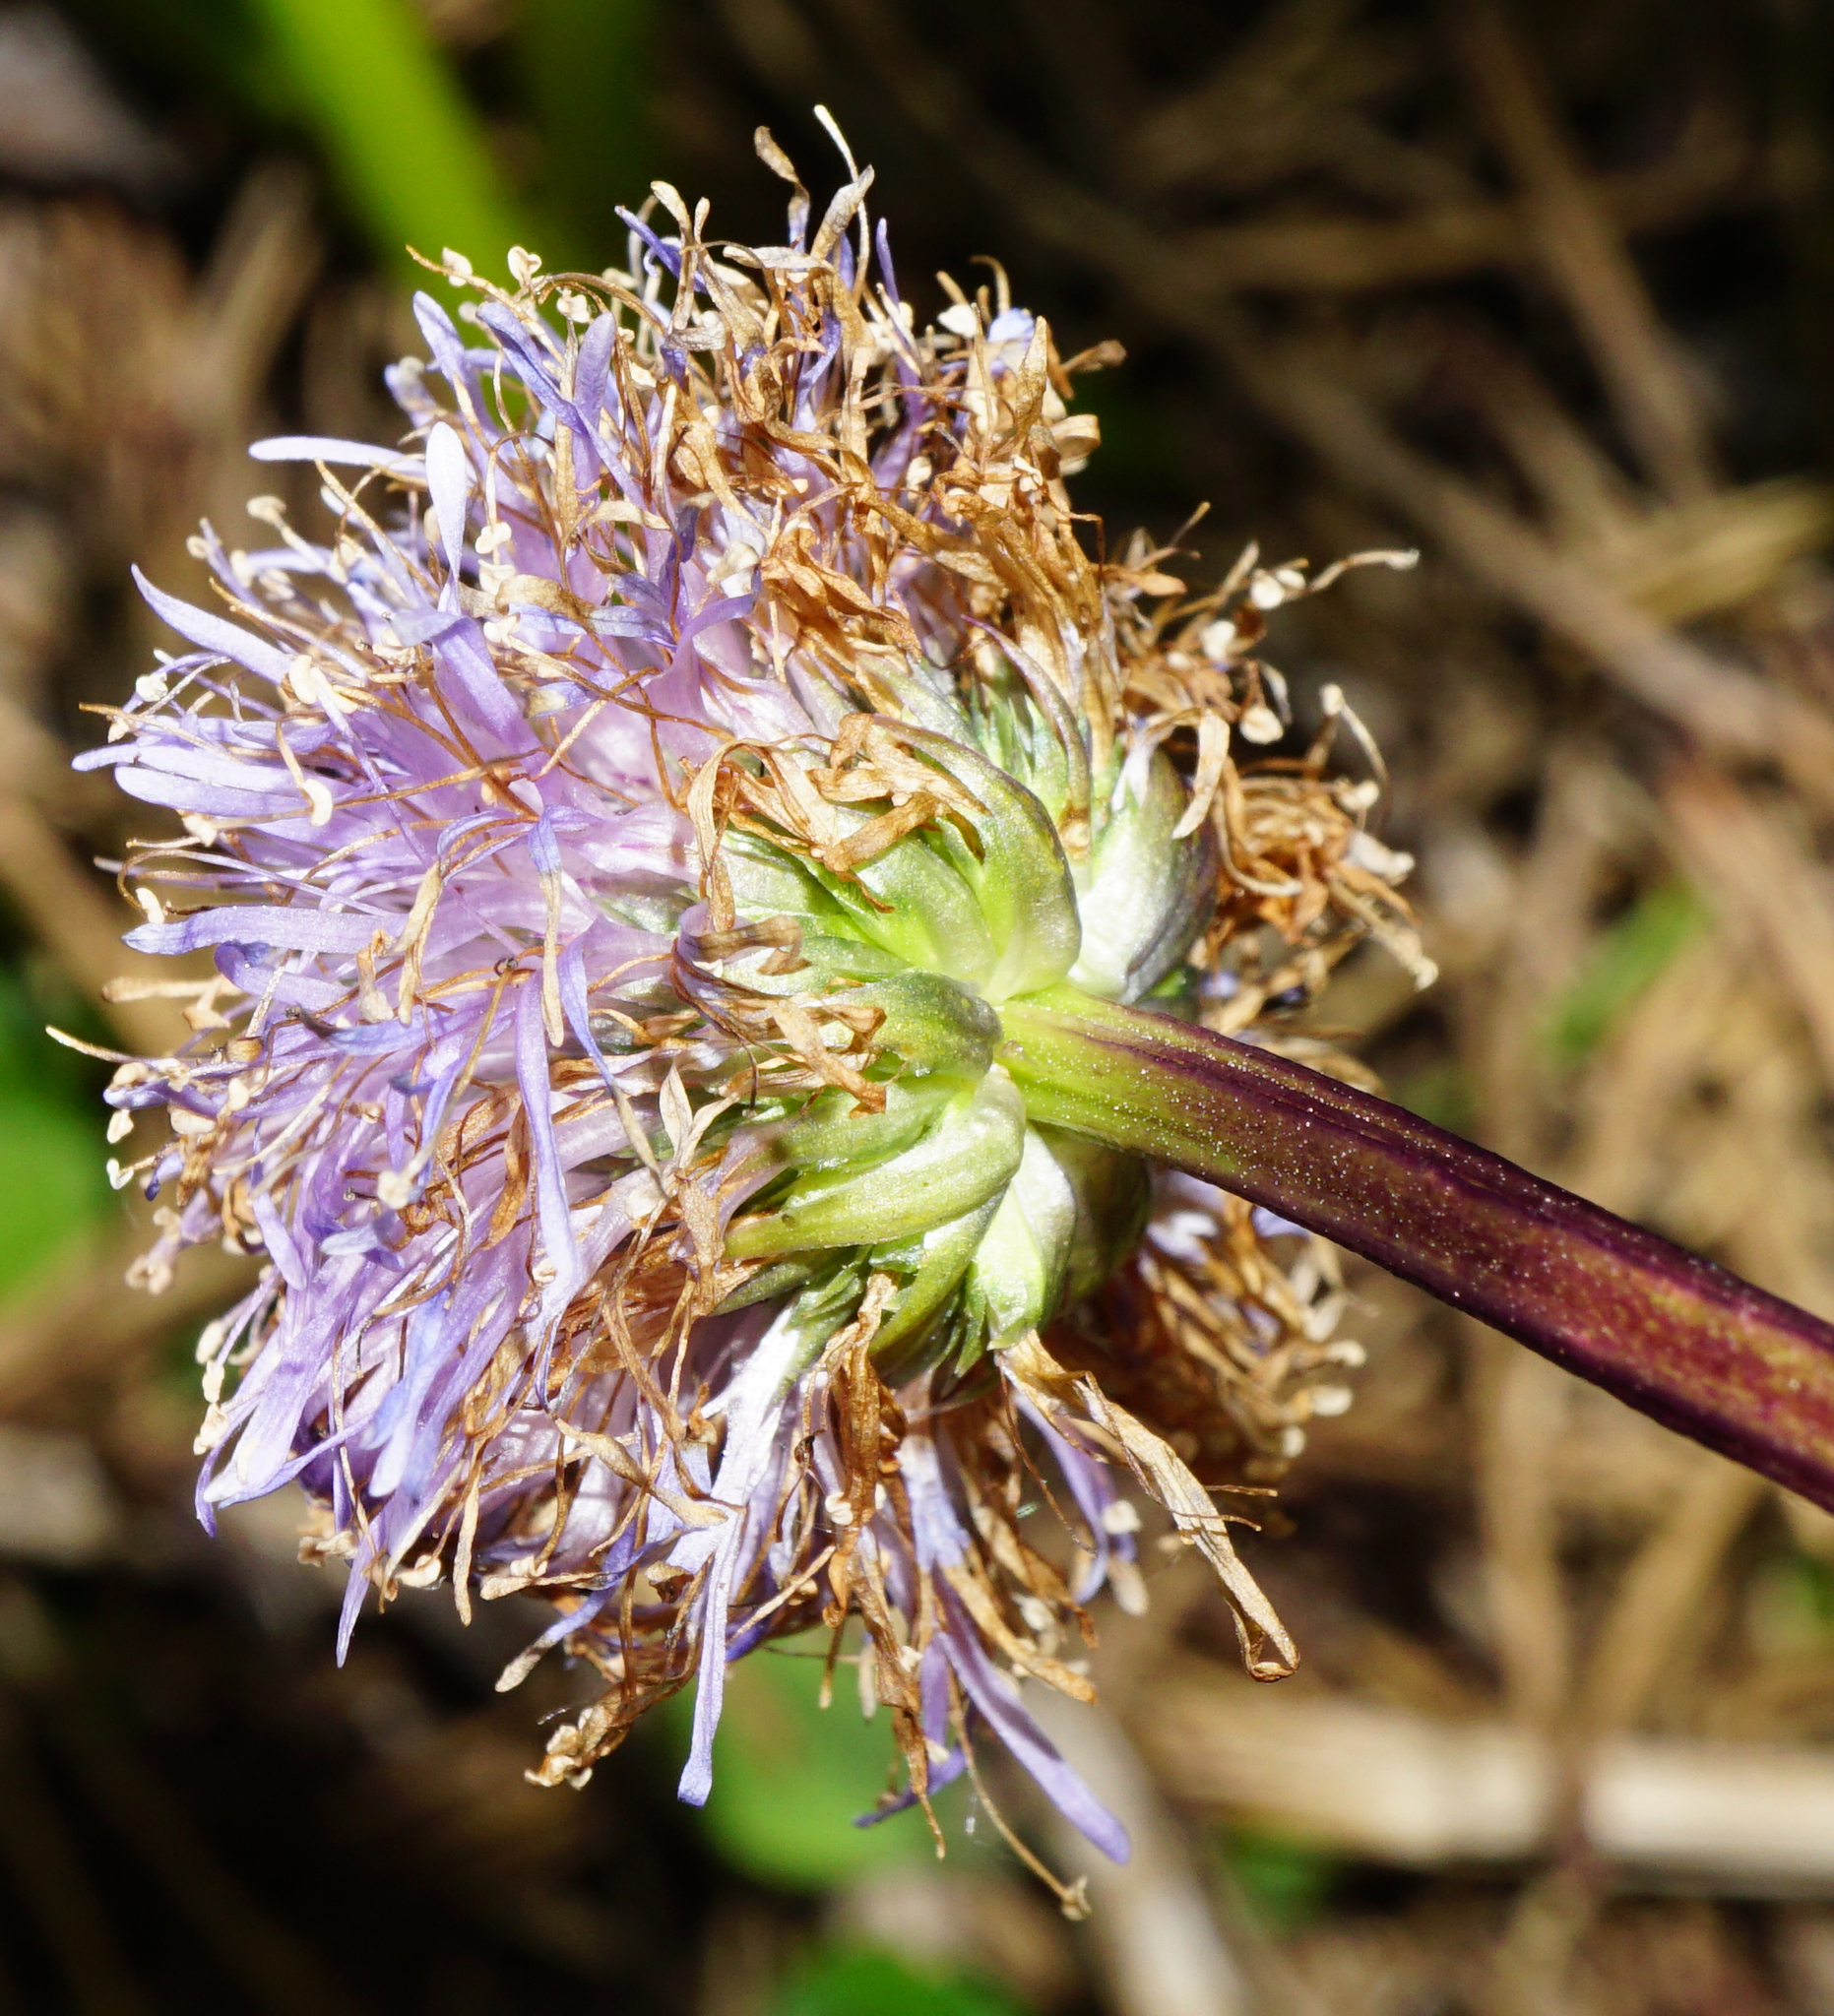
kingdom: Plantae
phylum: Tracheophyta
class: Magnoliopsida
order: Lamiales
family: Plantaginaceae
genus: Globularia
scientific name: Globularia nudicaulis
